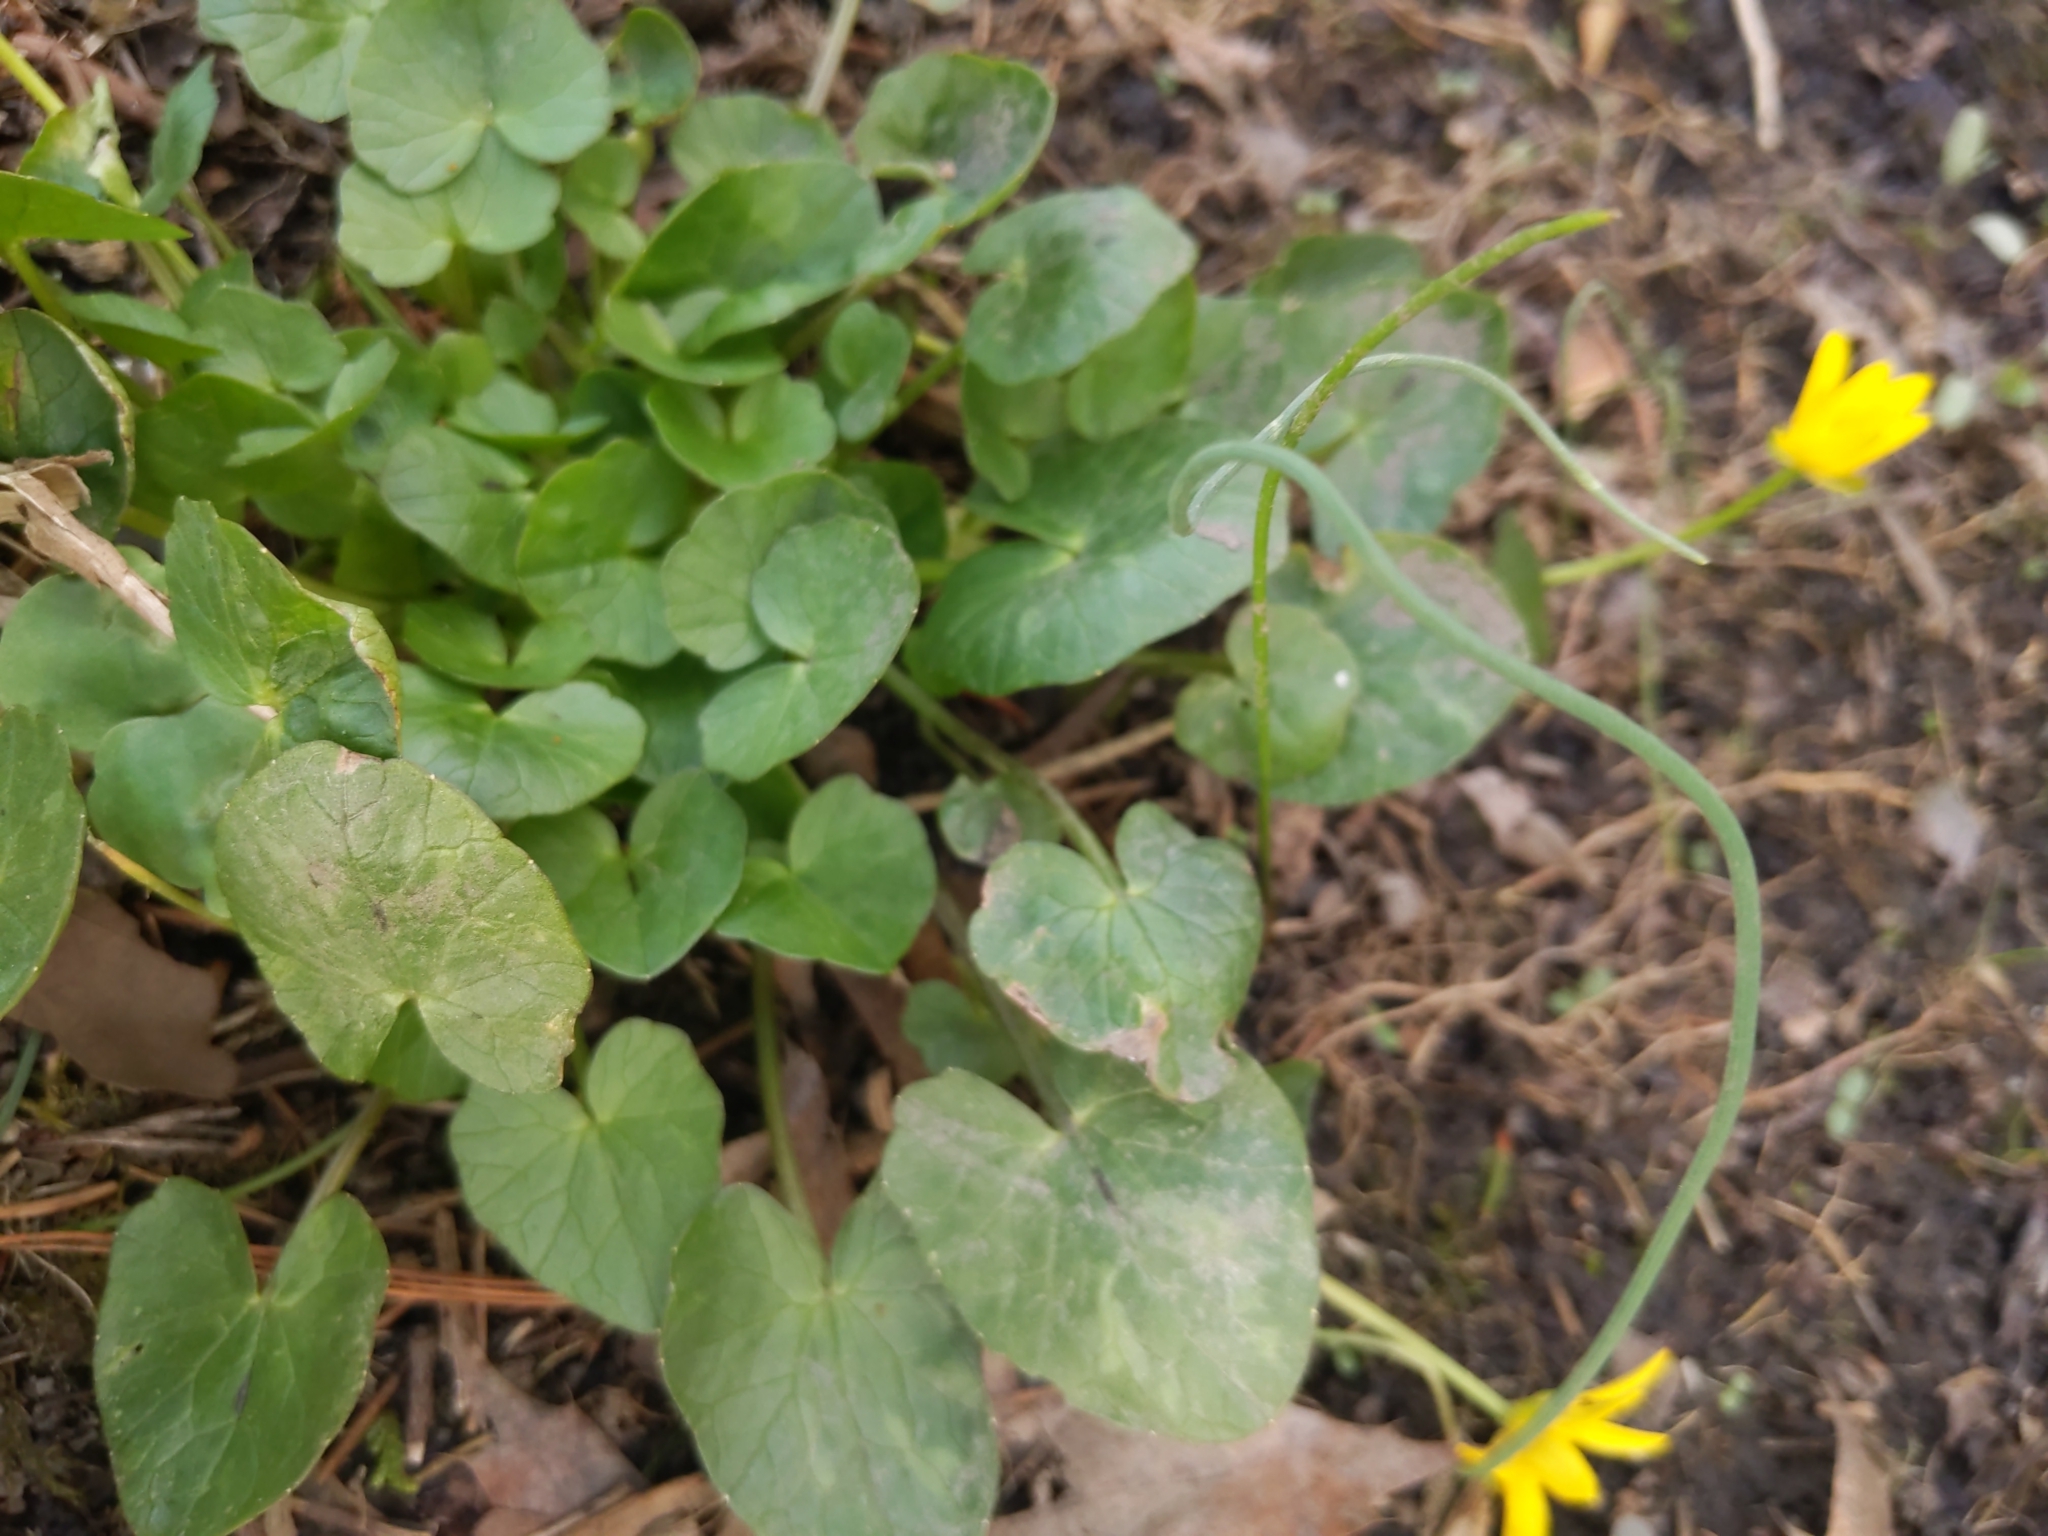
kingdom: Plantae
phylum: Tracheophyta
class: Magnoliopsida
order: Ranunculales
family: Ranunculaceae
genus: Ficaria
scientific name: Ficaria verna
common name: Lesser celandine
